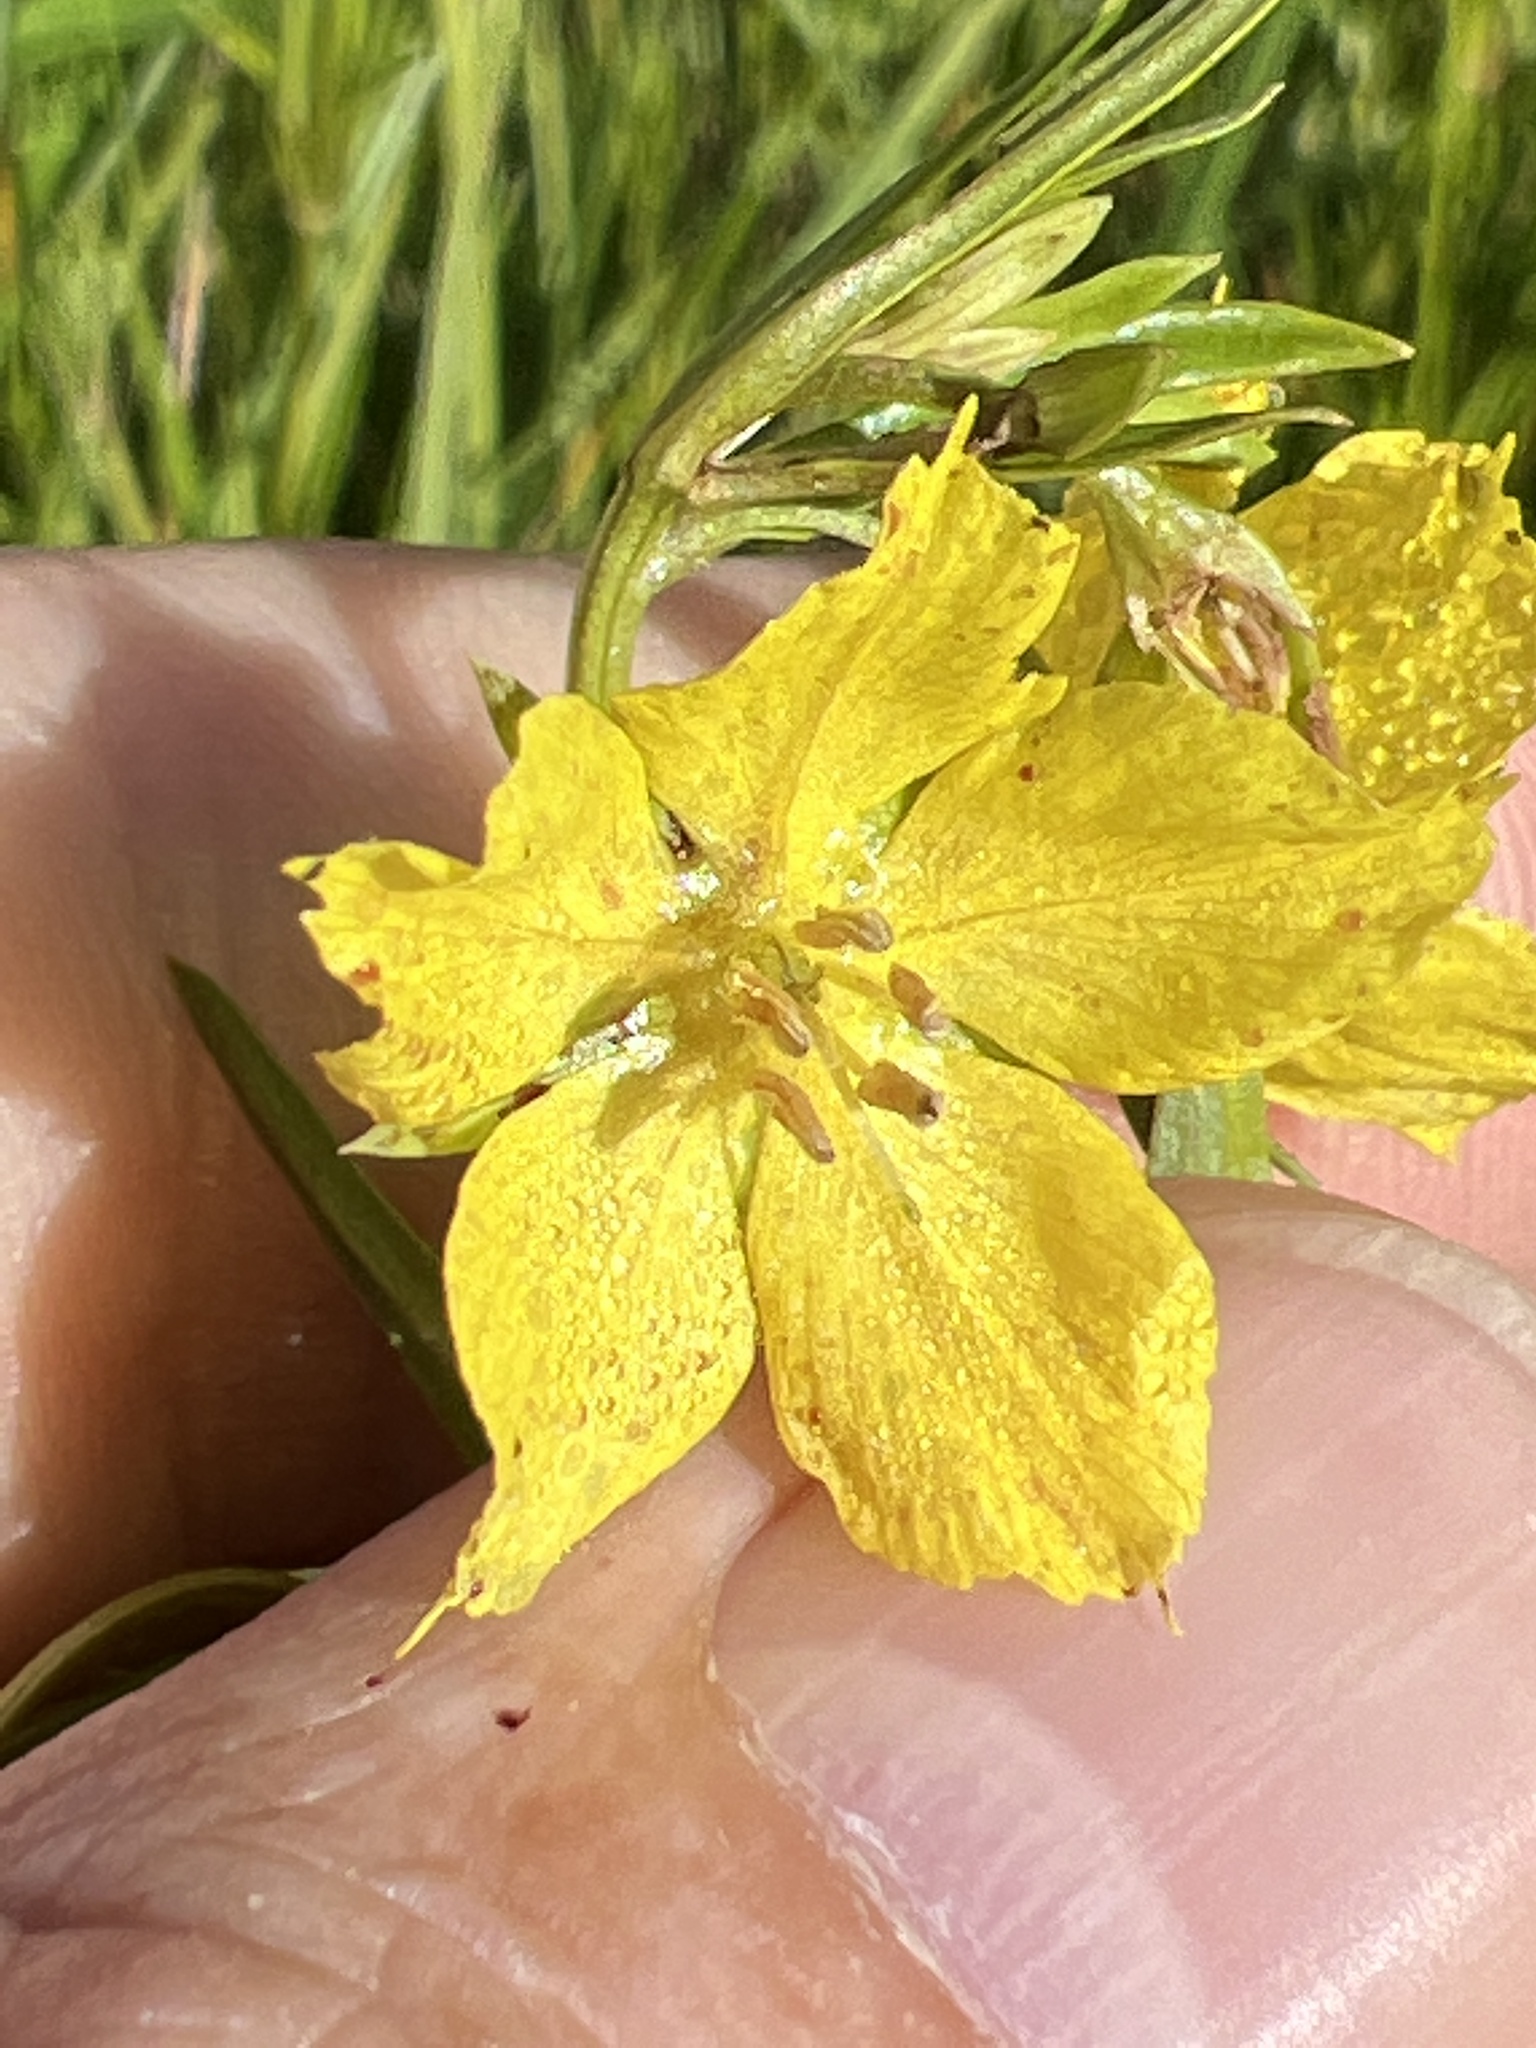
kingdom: Plantae
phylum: Tracheophyta
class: Magnoliopsida
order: Ericales
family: Primulaceae
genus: Lysimachia
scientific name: Lysimachia quadriflora
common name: Four-flowered loosestrife
